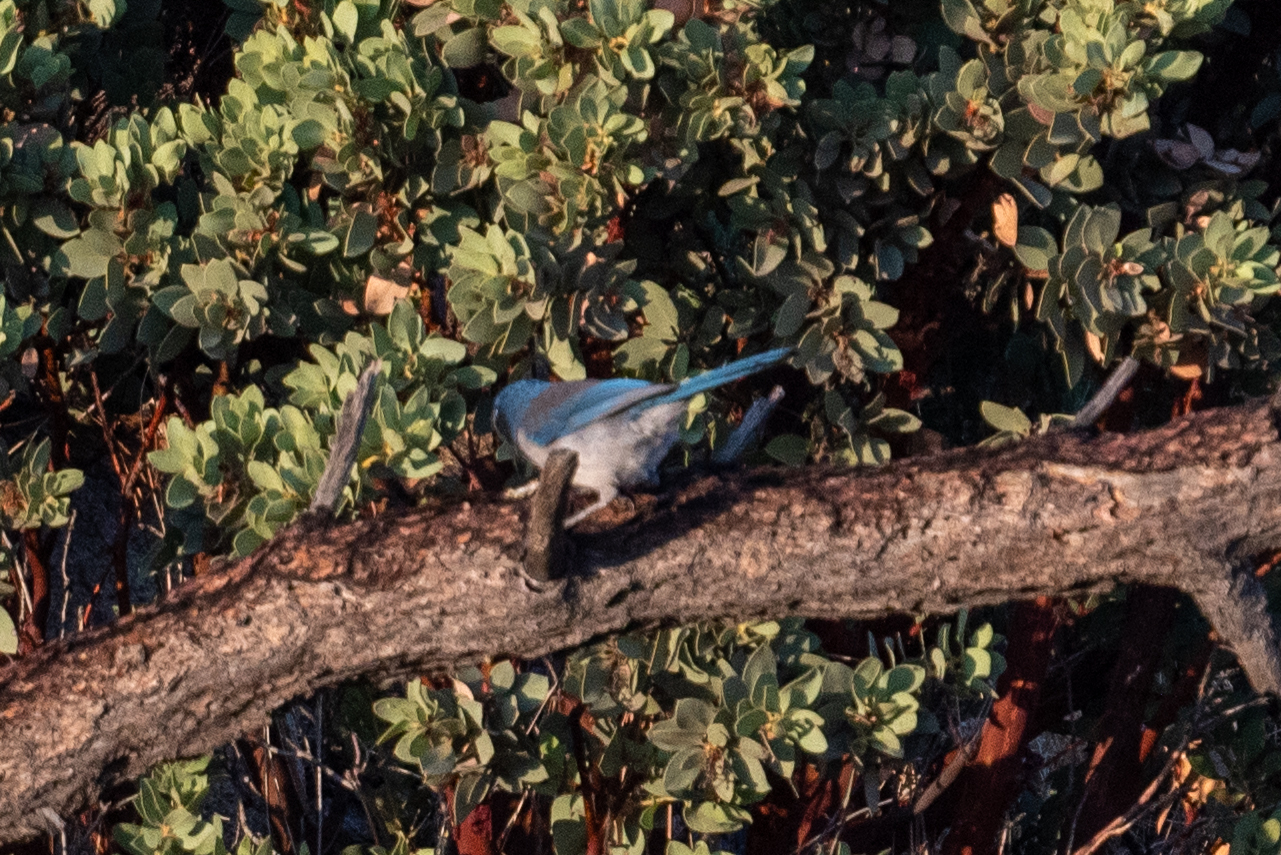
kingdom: Animalia
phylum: Chordata
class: Aves
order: Passeriformes
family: Corvidae
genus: Aphelocoma
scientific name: Aphelocoma californica
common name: California scrub-jay
